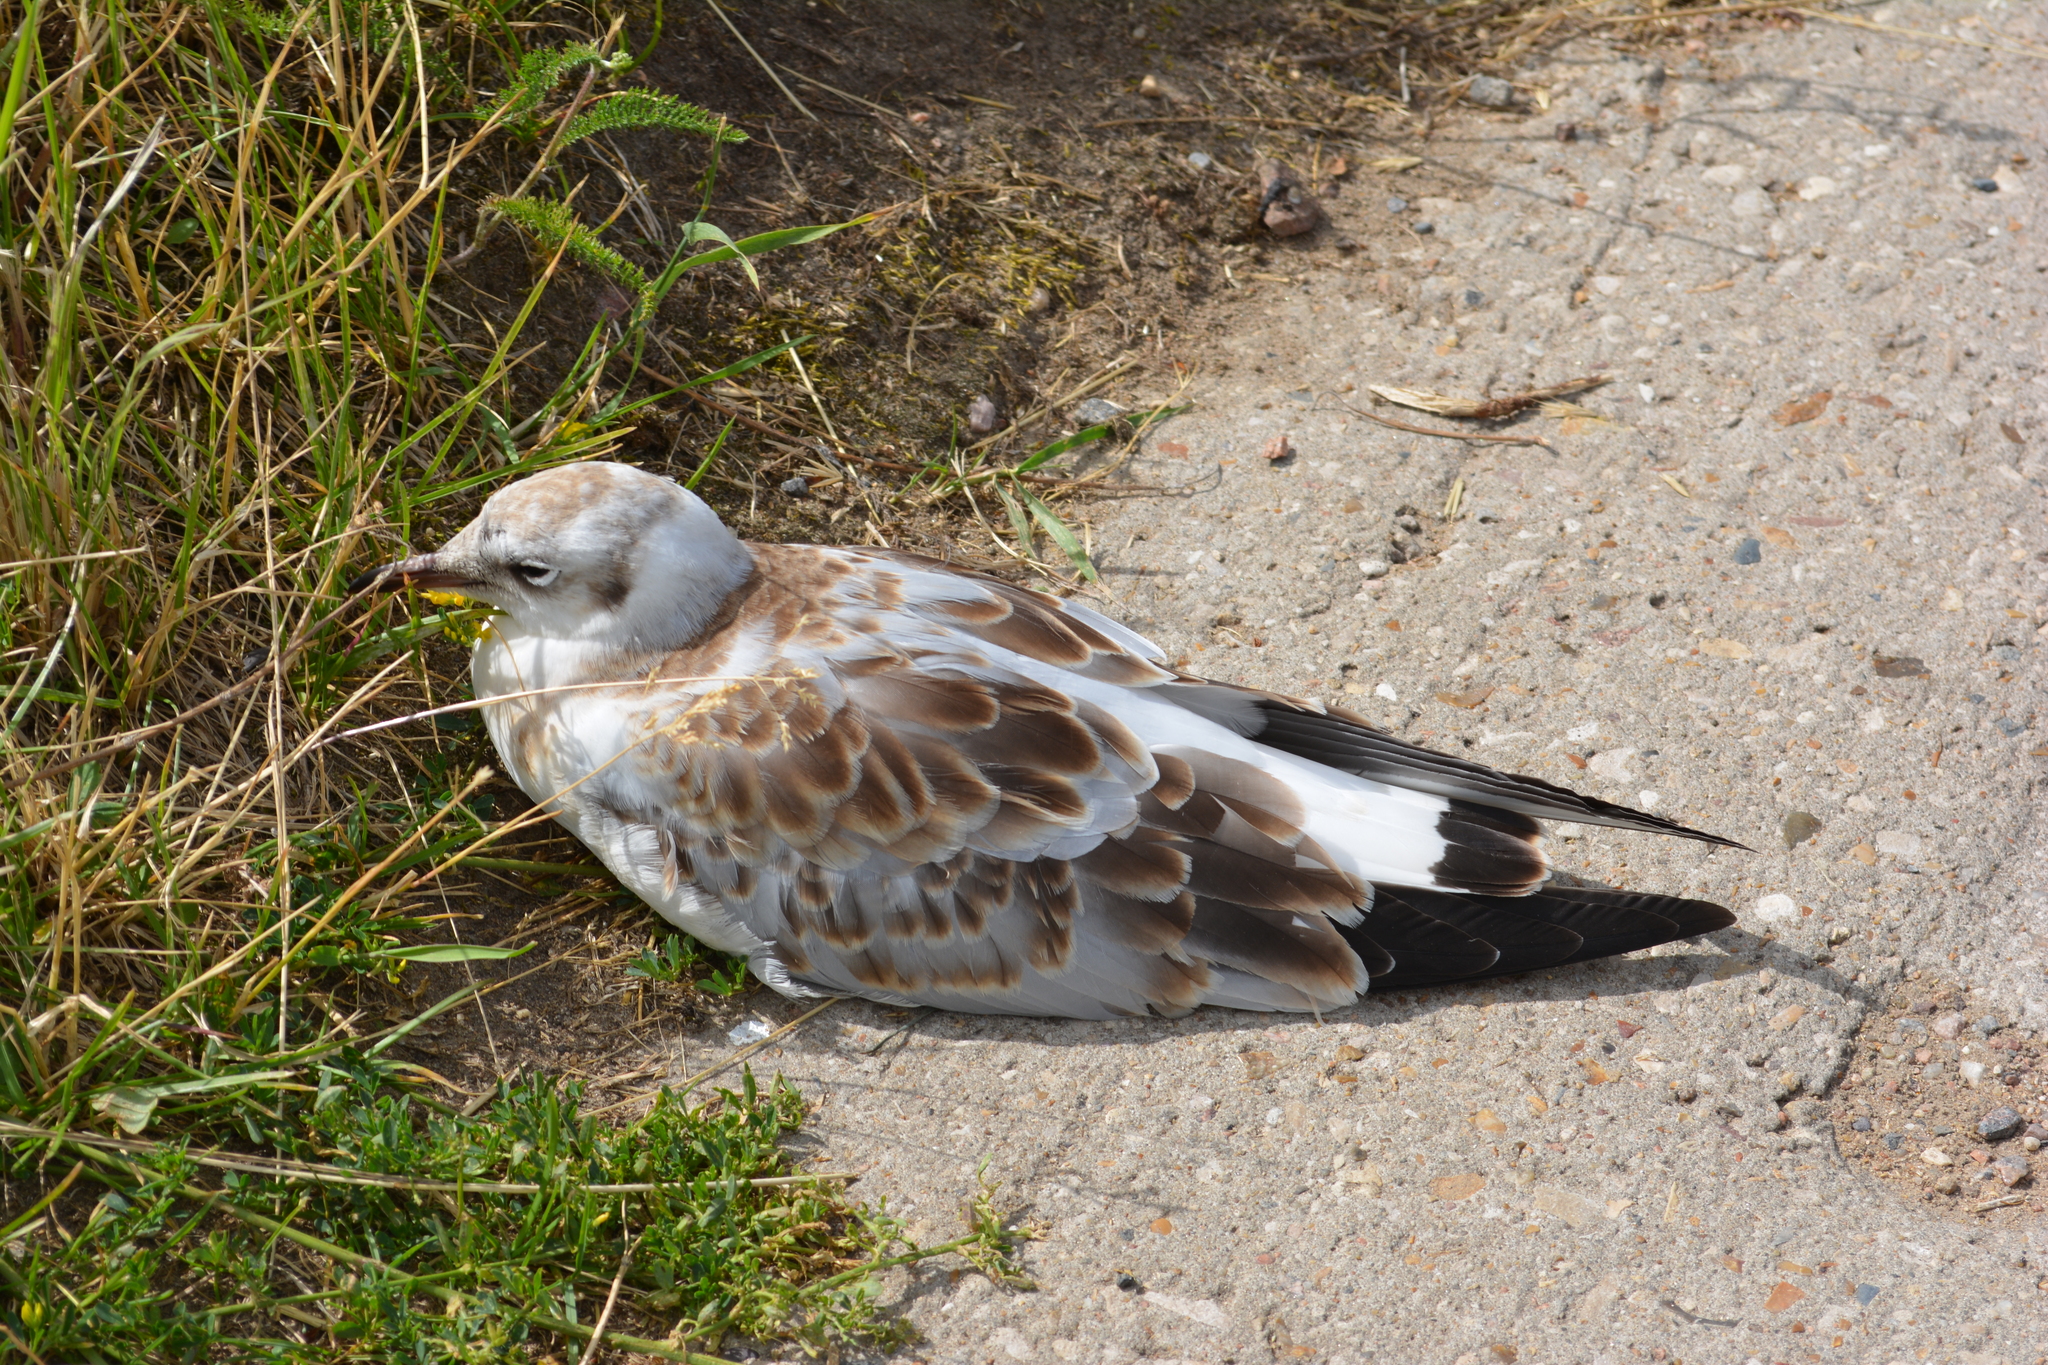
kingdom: Animalia
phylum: Chordata
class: Aves
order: Charadriiformes
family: Laridae
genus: Chroicocephalus
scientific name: Chroicocephalus ridibundus
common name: Black-headed gull
